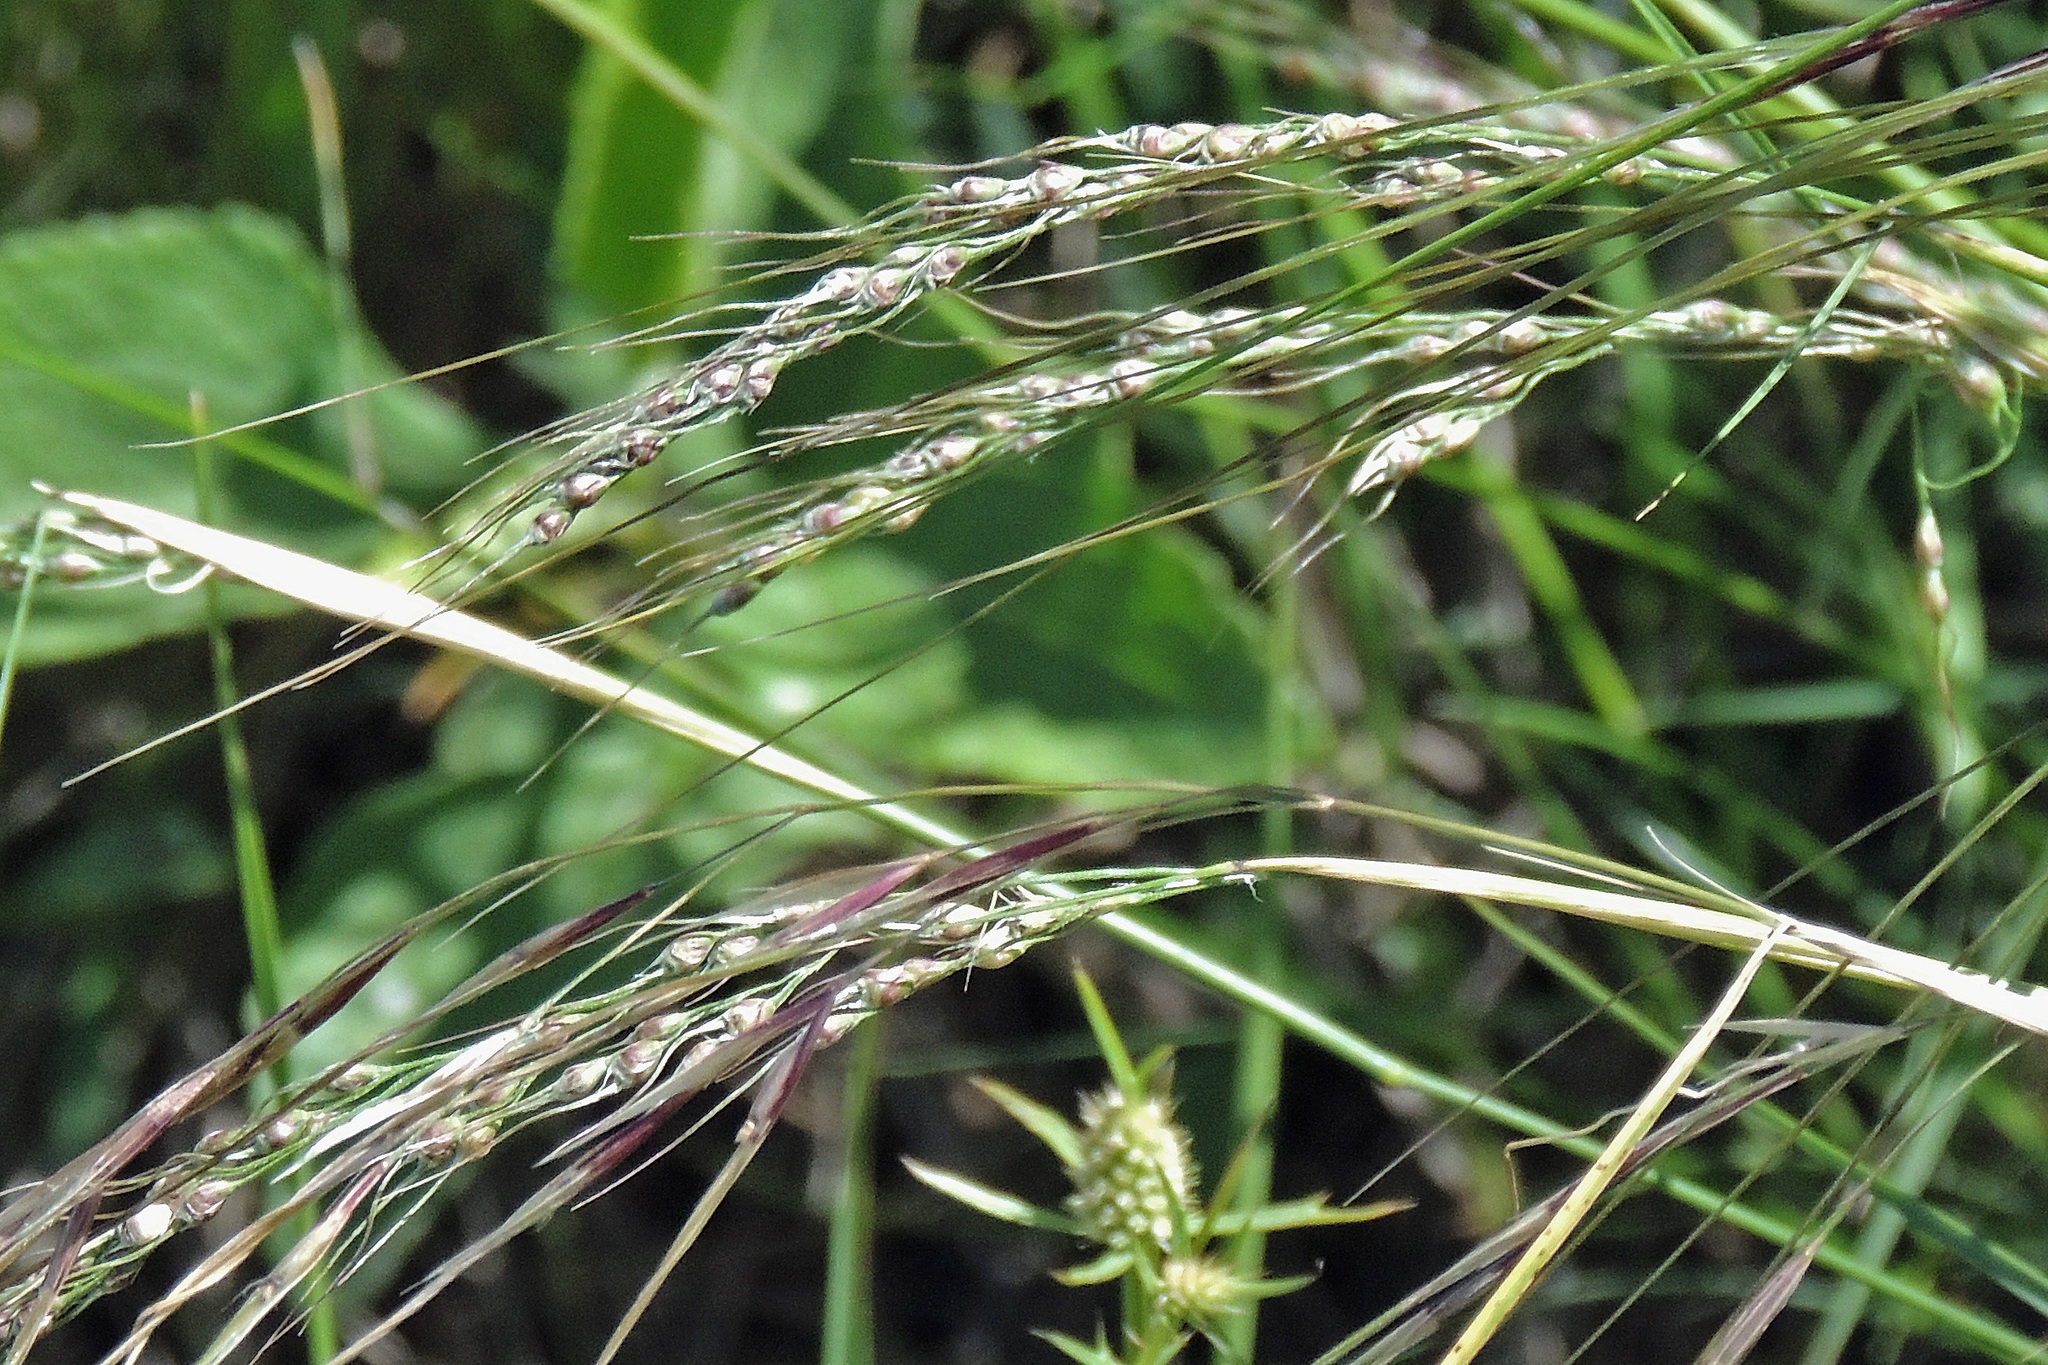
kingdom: Plantae
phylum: Tracheophyta
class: Liliopsida
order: Poales
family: Poaceae
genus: Piptochaetium
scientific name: Piptochaetium stipoides
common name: Purple speargrass
